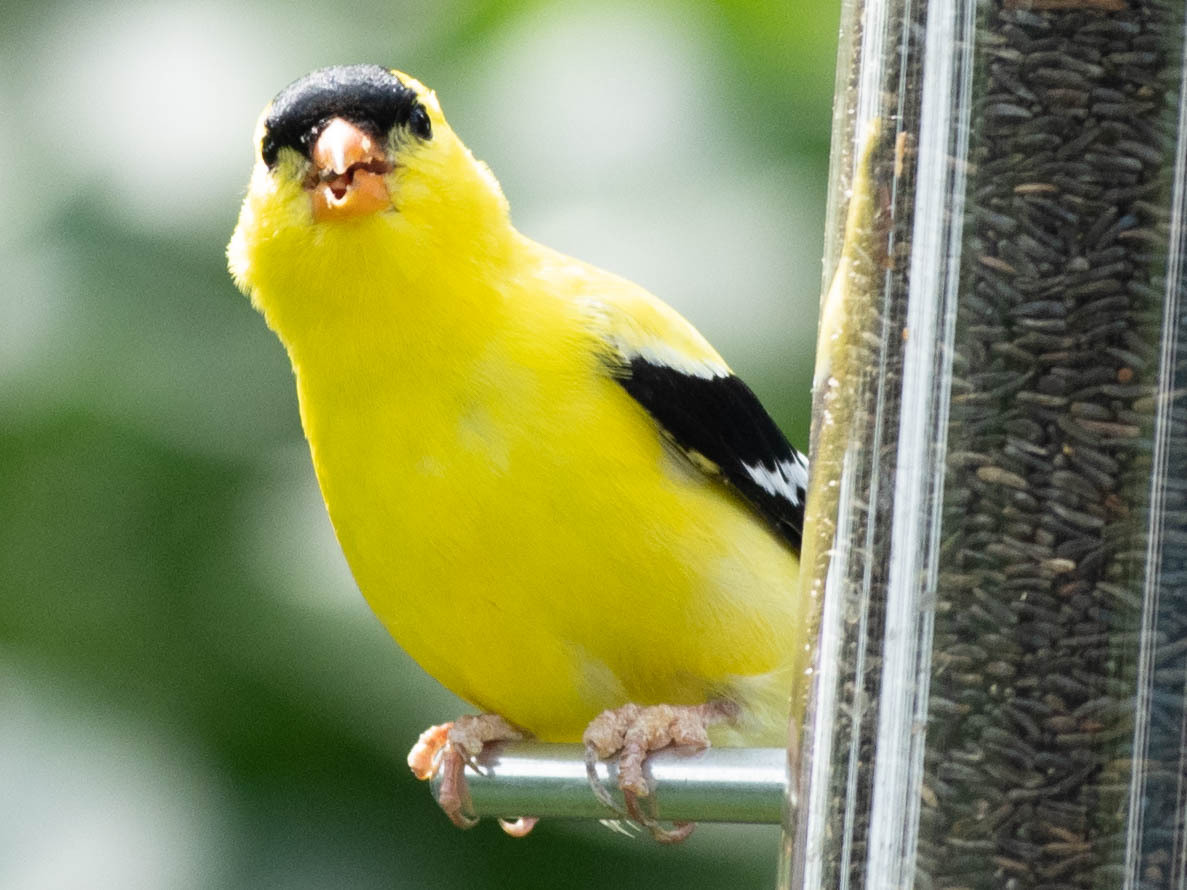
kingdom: Animalia
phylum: Chordata
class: Aves
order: Passeriformes
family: Fringillidae
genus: Spinus
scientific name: Spinus tristis
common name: American goldfinch
